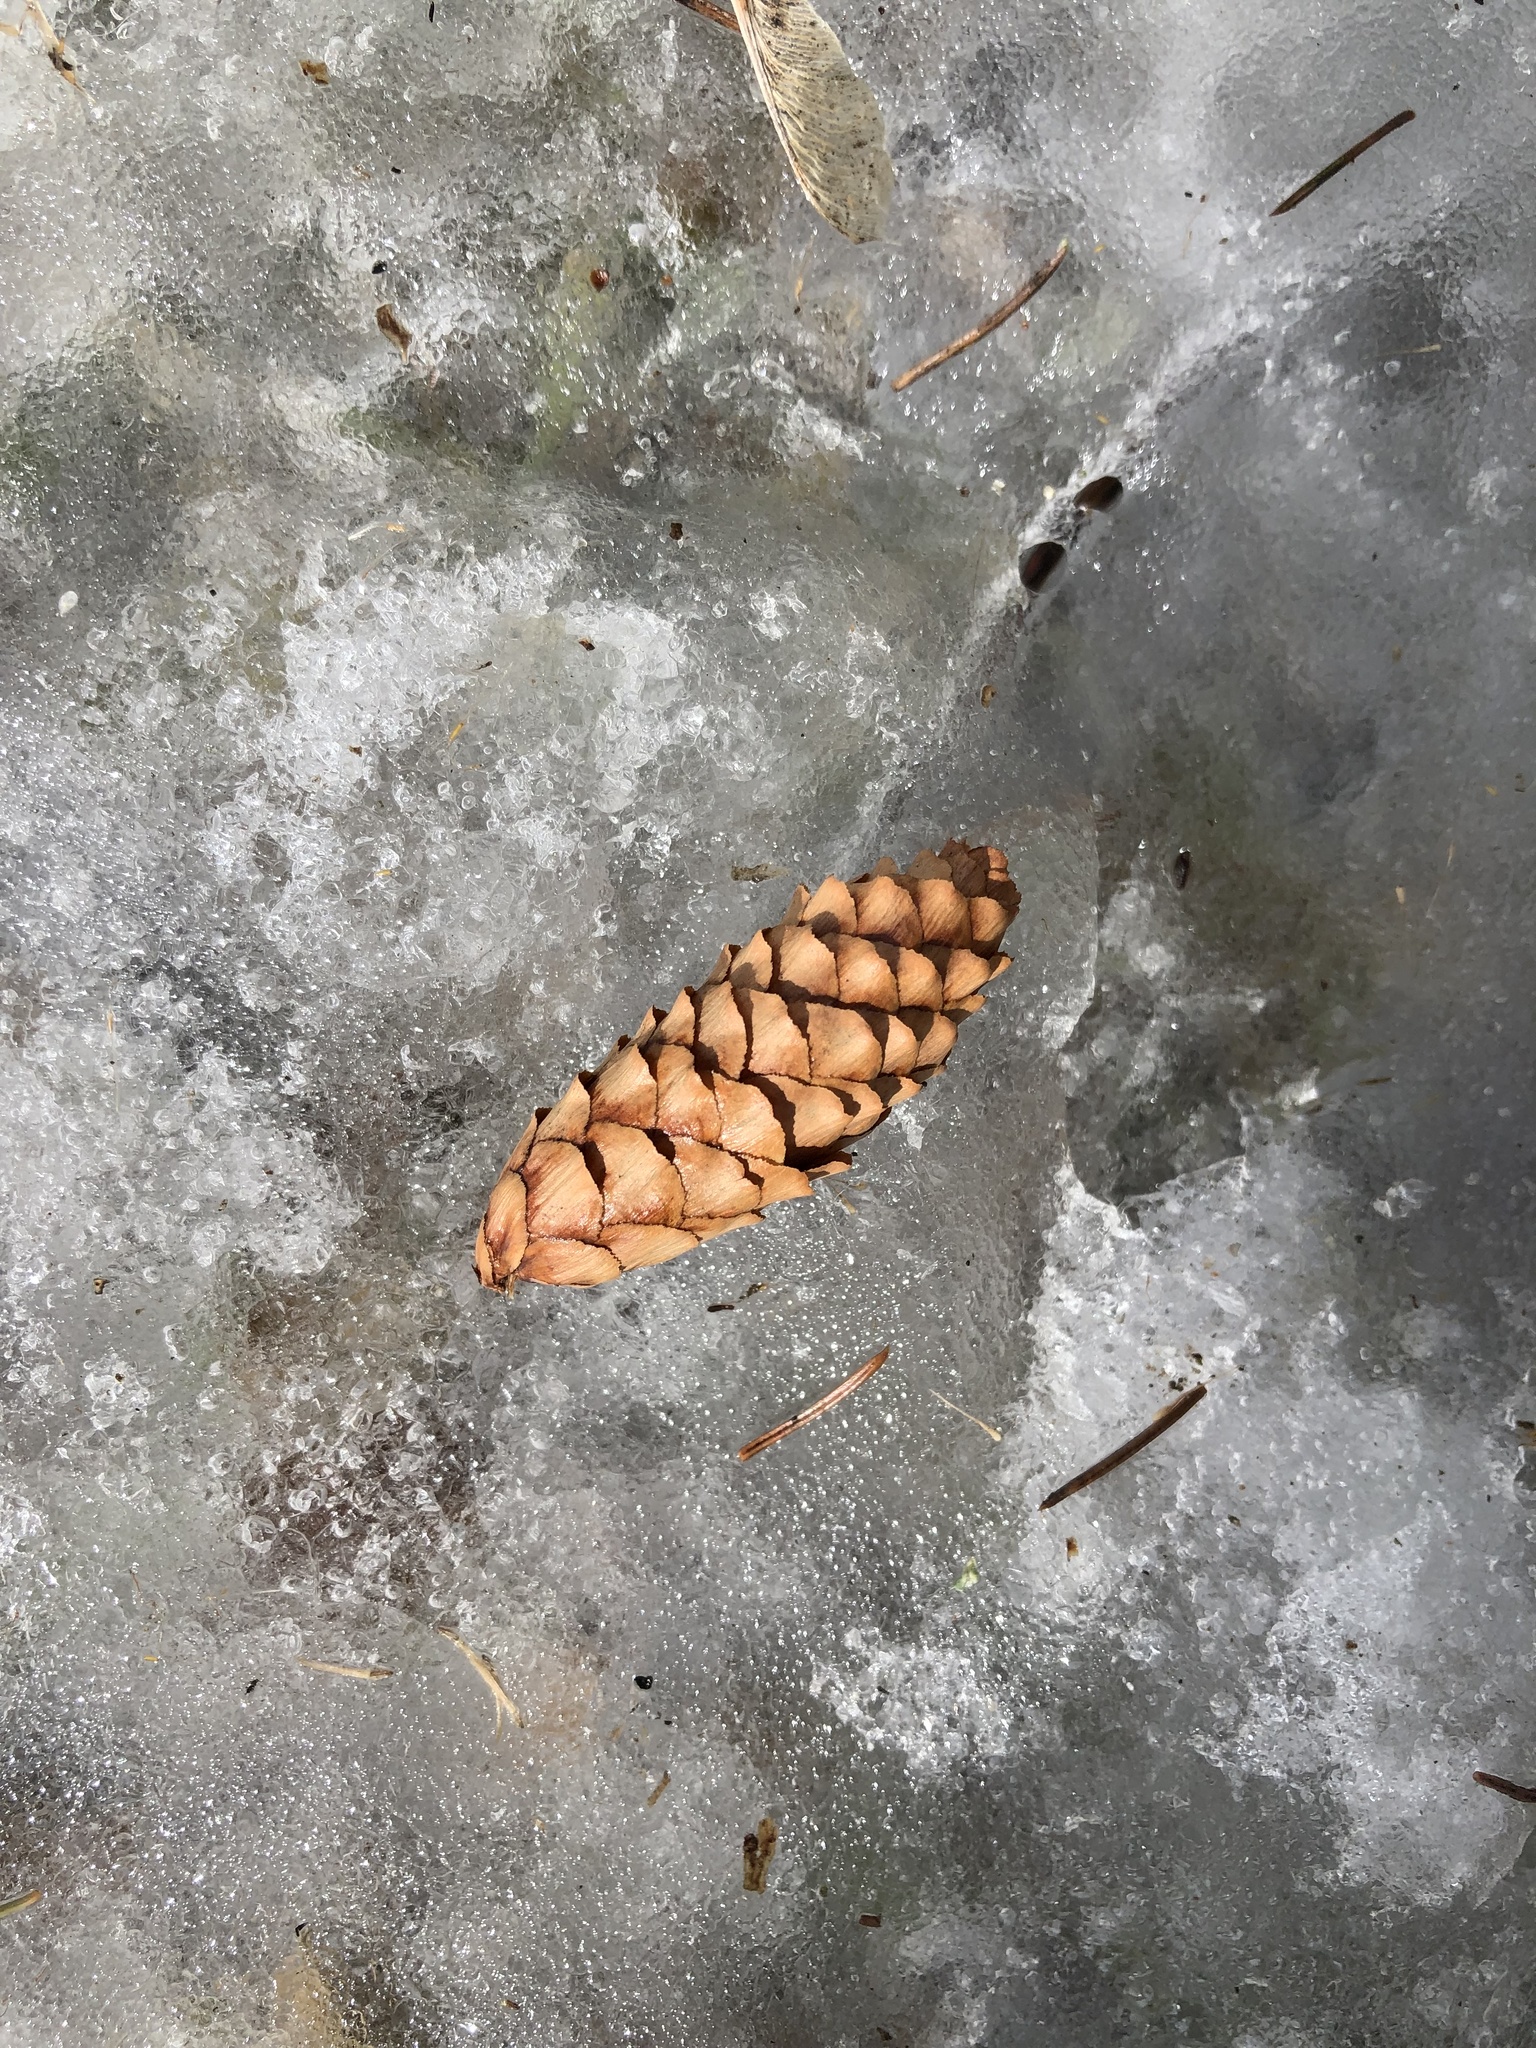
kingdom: Plantae
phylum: Tracheophyta
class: Pinopsida
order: Pinales
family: Pinaceae
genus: Picea
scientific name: Picea glauca
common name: White spruce
